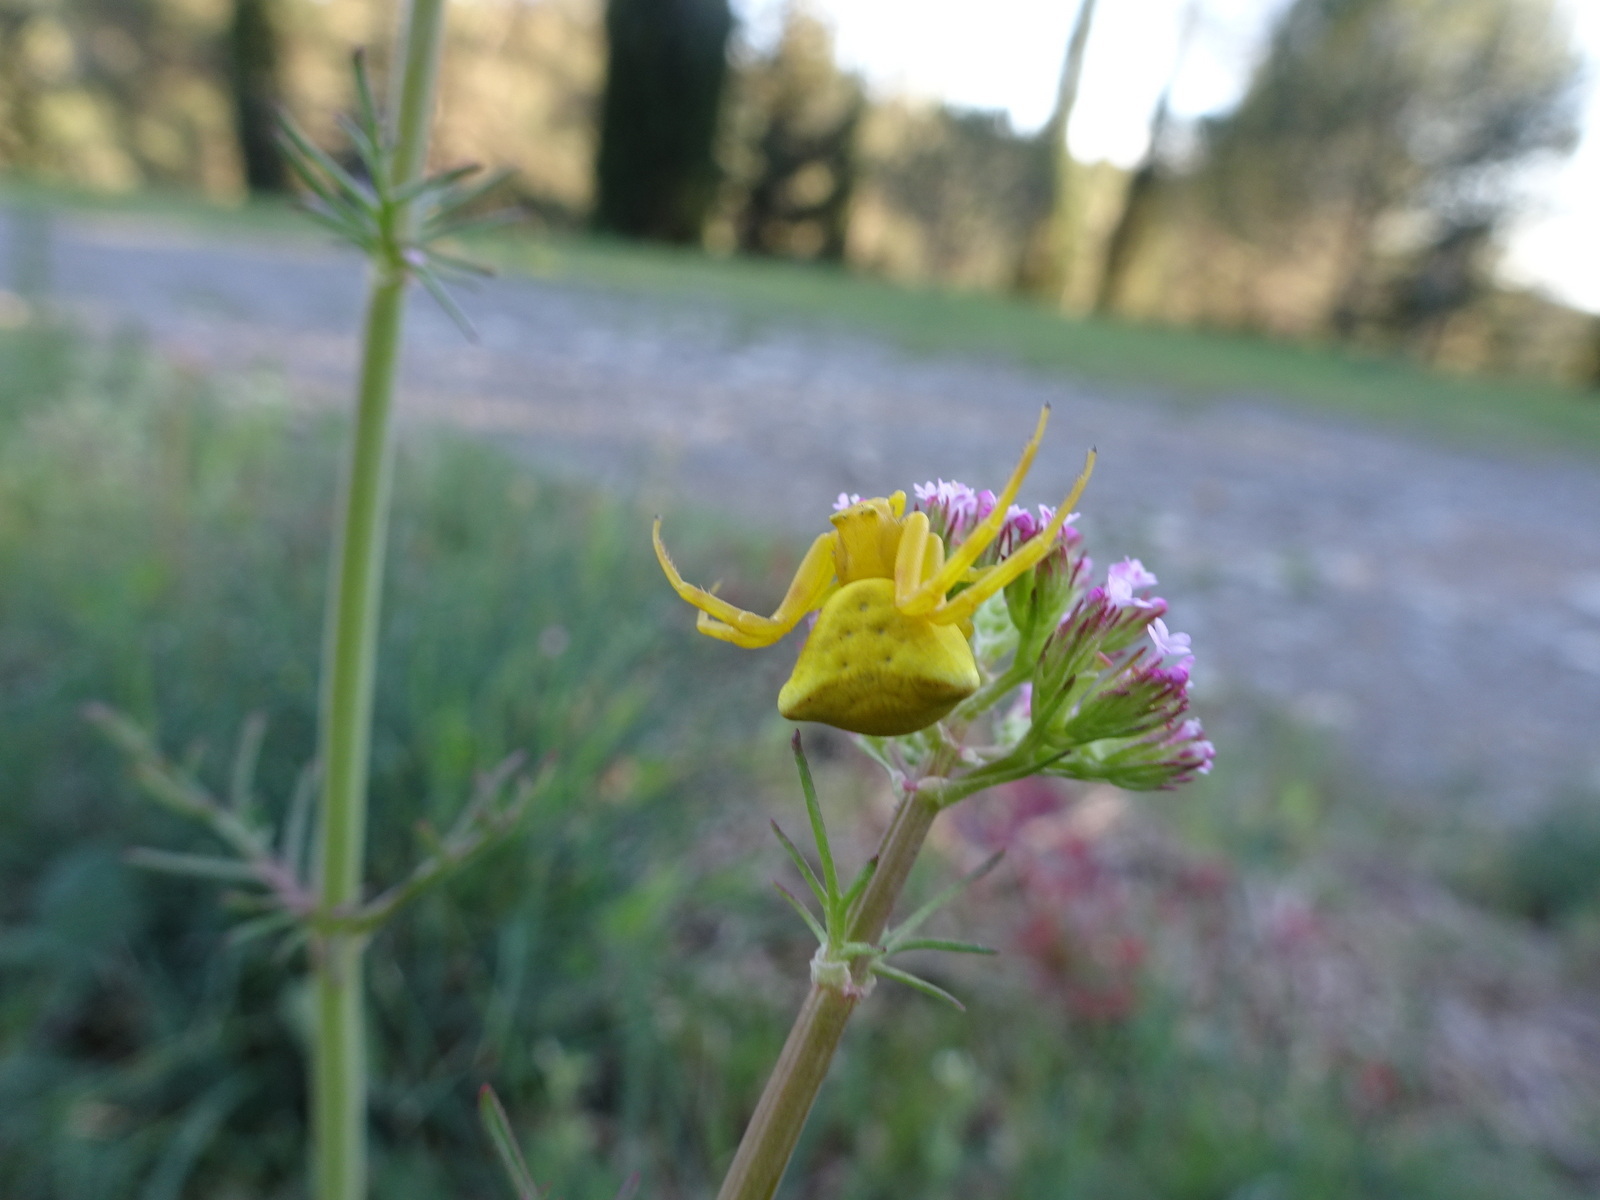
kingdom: Animalia
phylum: Arthropoda
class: Arachnida
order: Araneae
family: Thomisidae
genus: Thomisus
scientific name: Thomisus onustus
